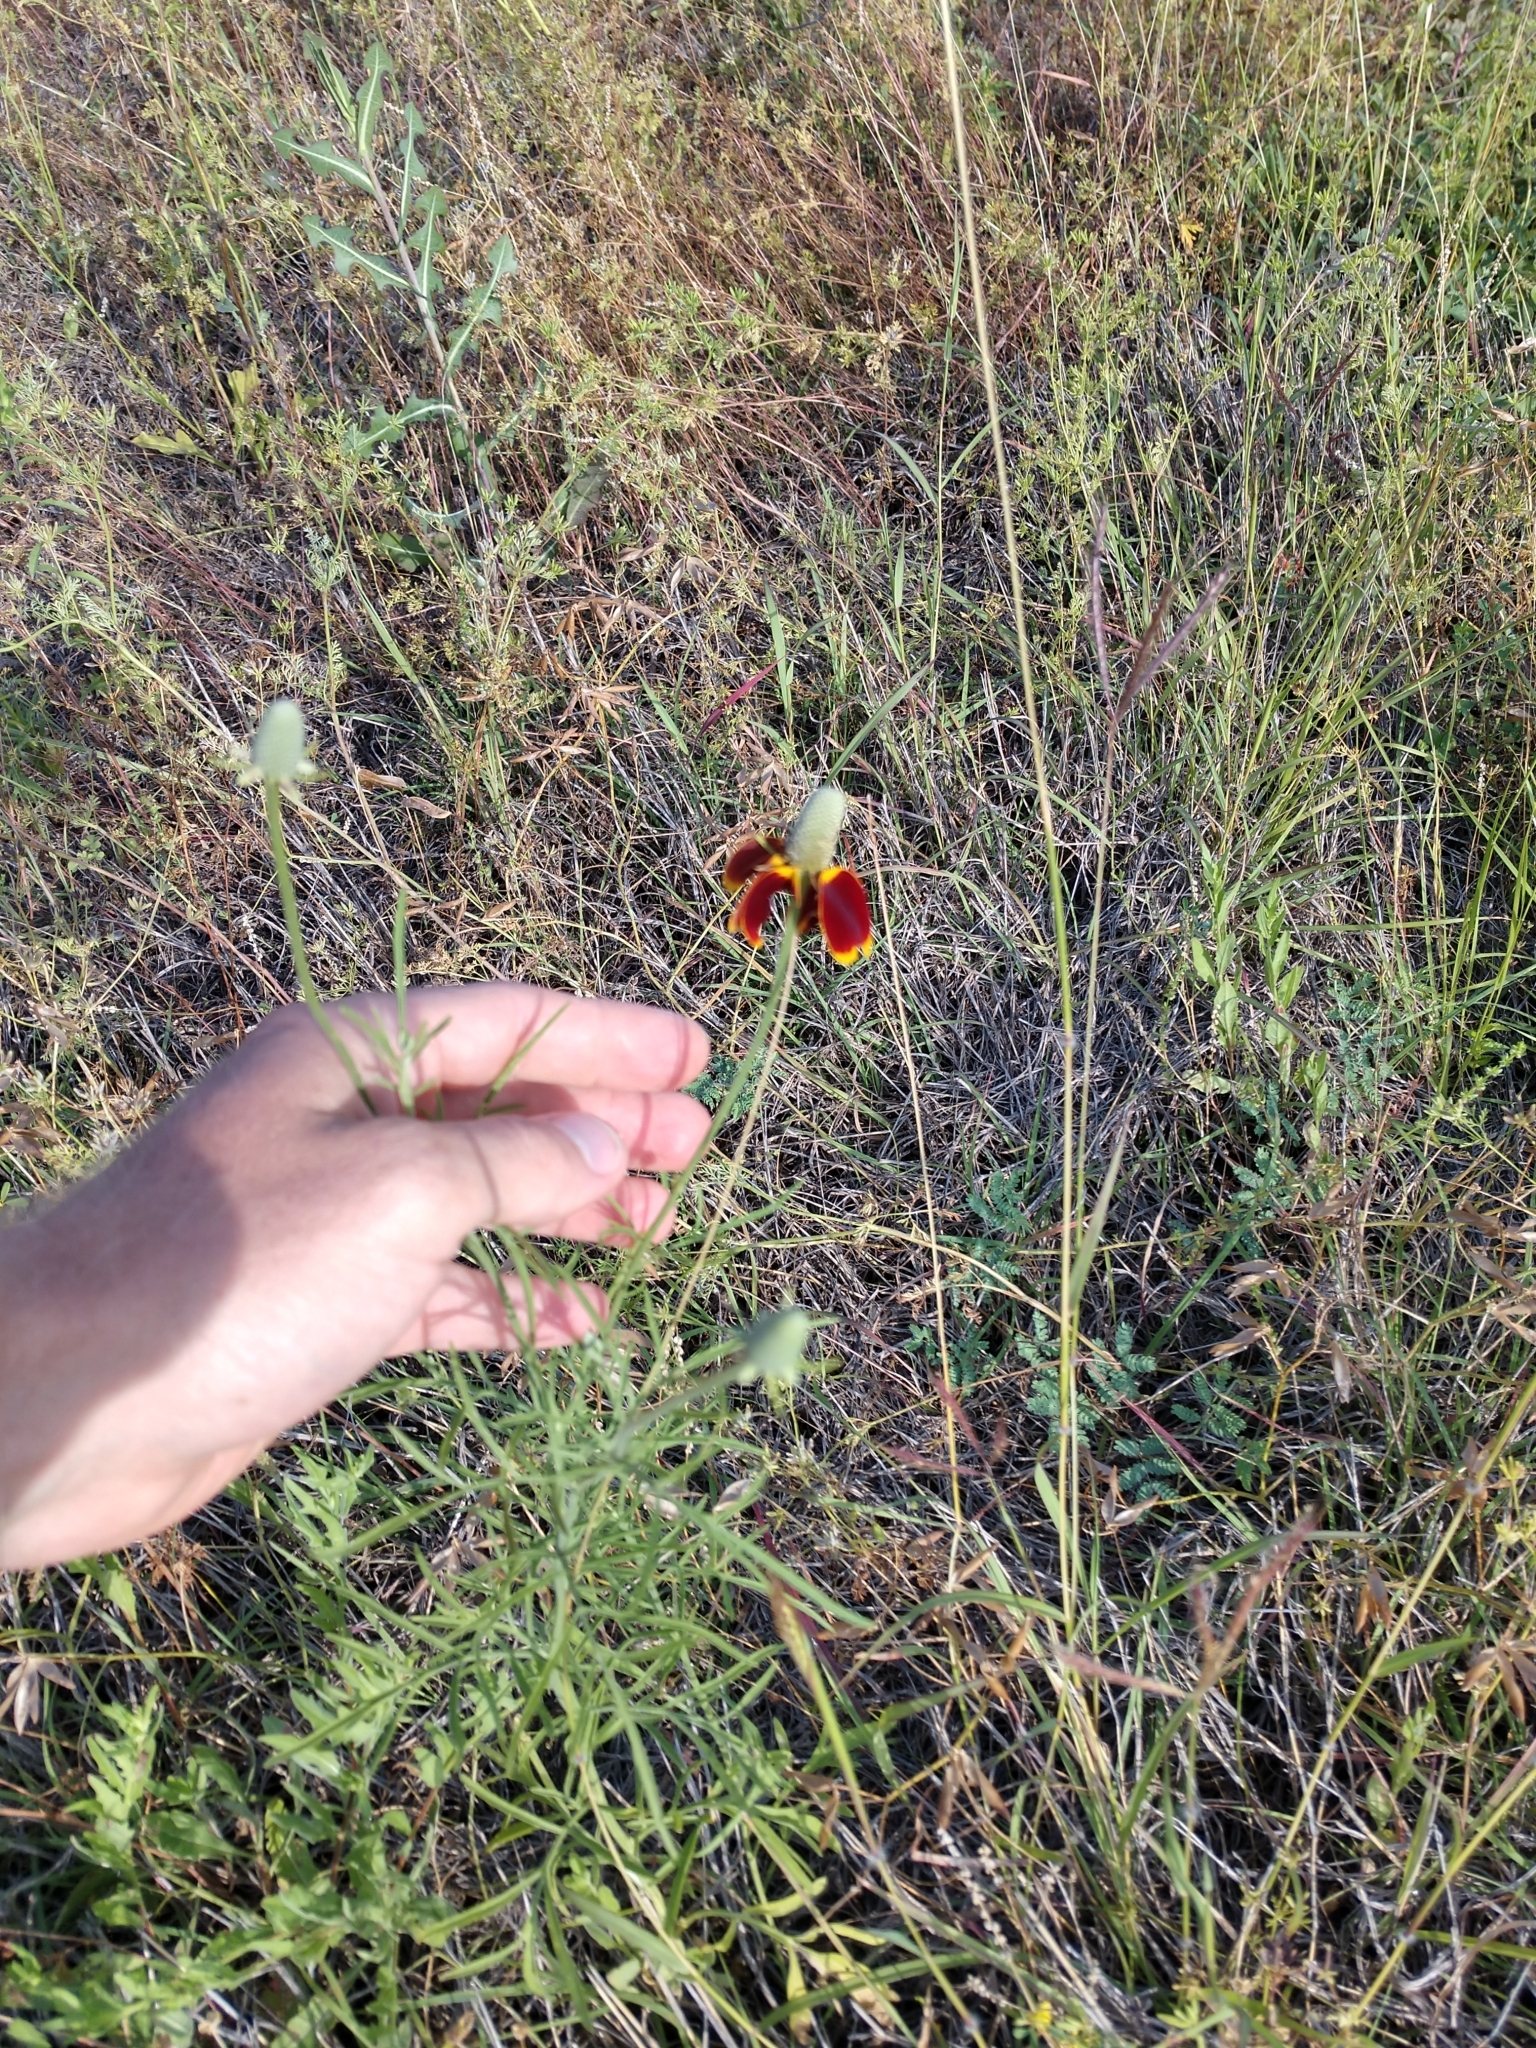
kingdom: Plantae
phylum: Tracheophyta
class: Magnoliopsida
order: Asterales
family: Asteraceae
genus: Ratibida
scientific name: Ratibida columnifera
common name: Prairie coneflower
